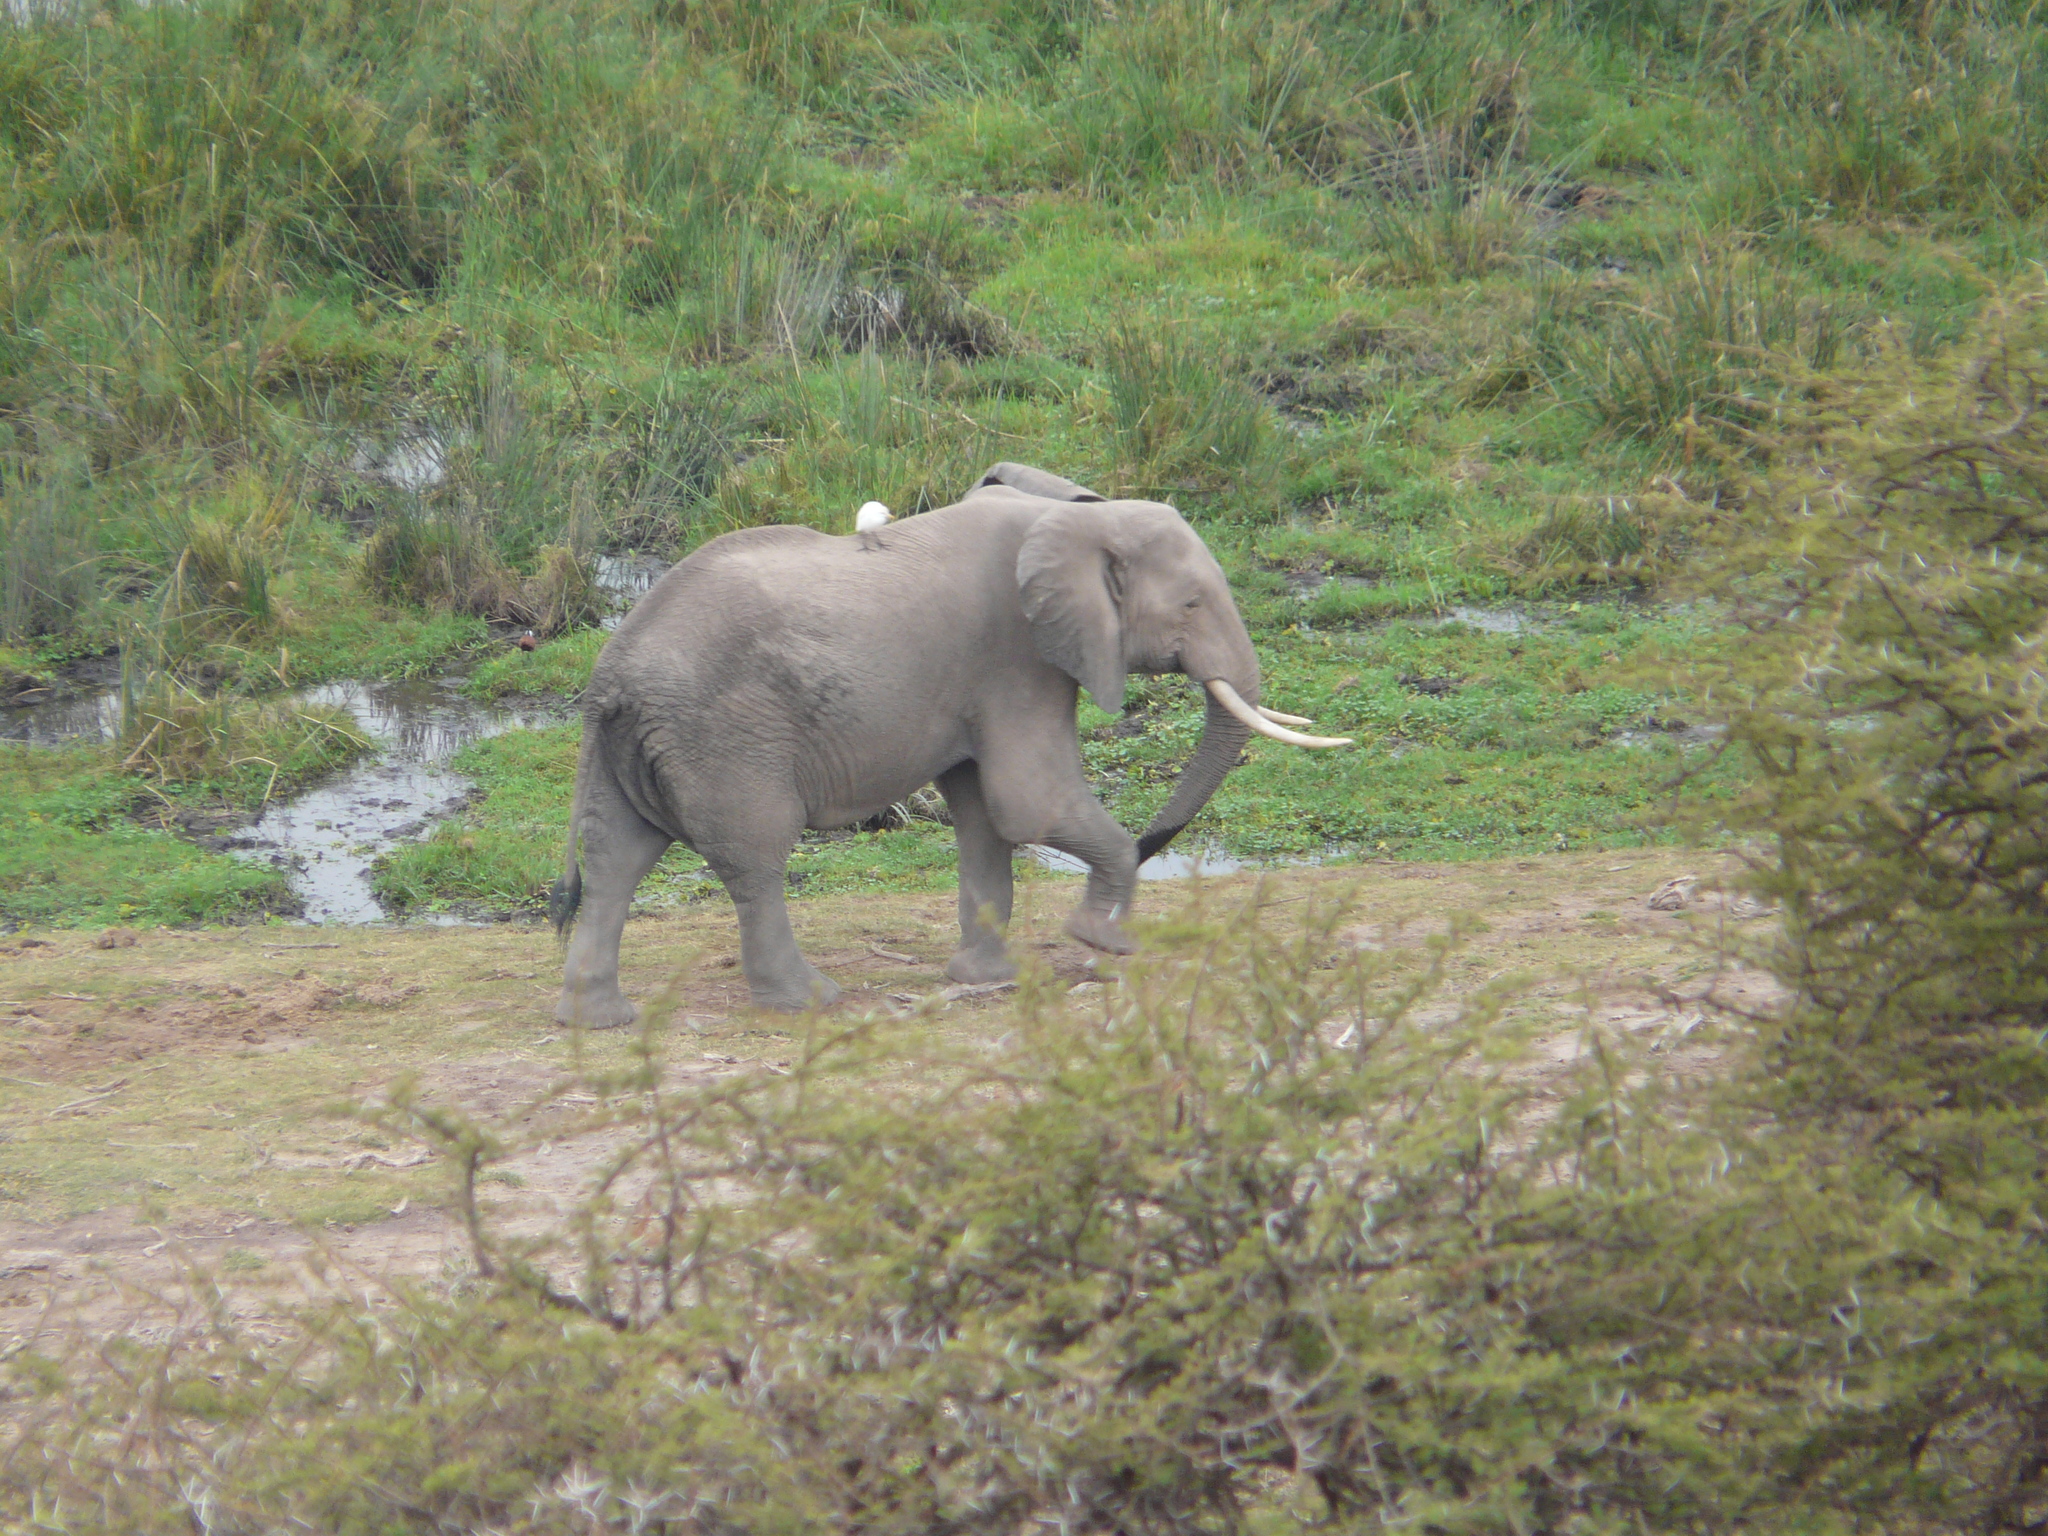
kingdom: Animalia
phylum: Chordata
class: Mammalia
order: Proboscidea
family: Elephantidae
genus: Loxodonta
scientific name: Loxodonta africana
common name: African elephant
